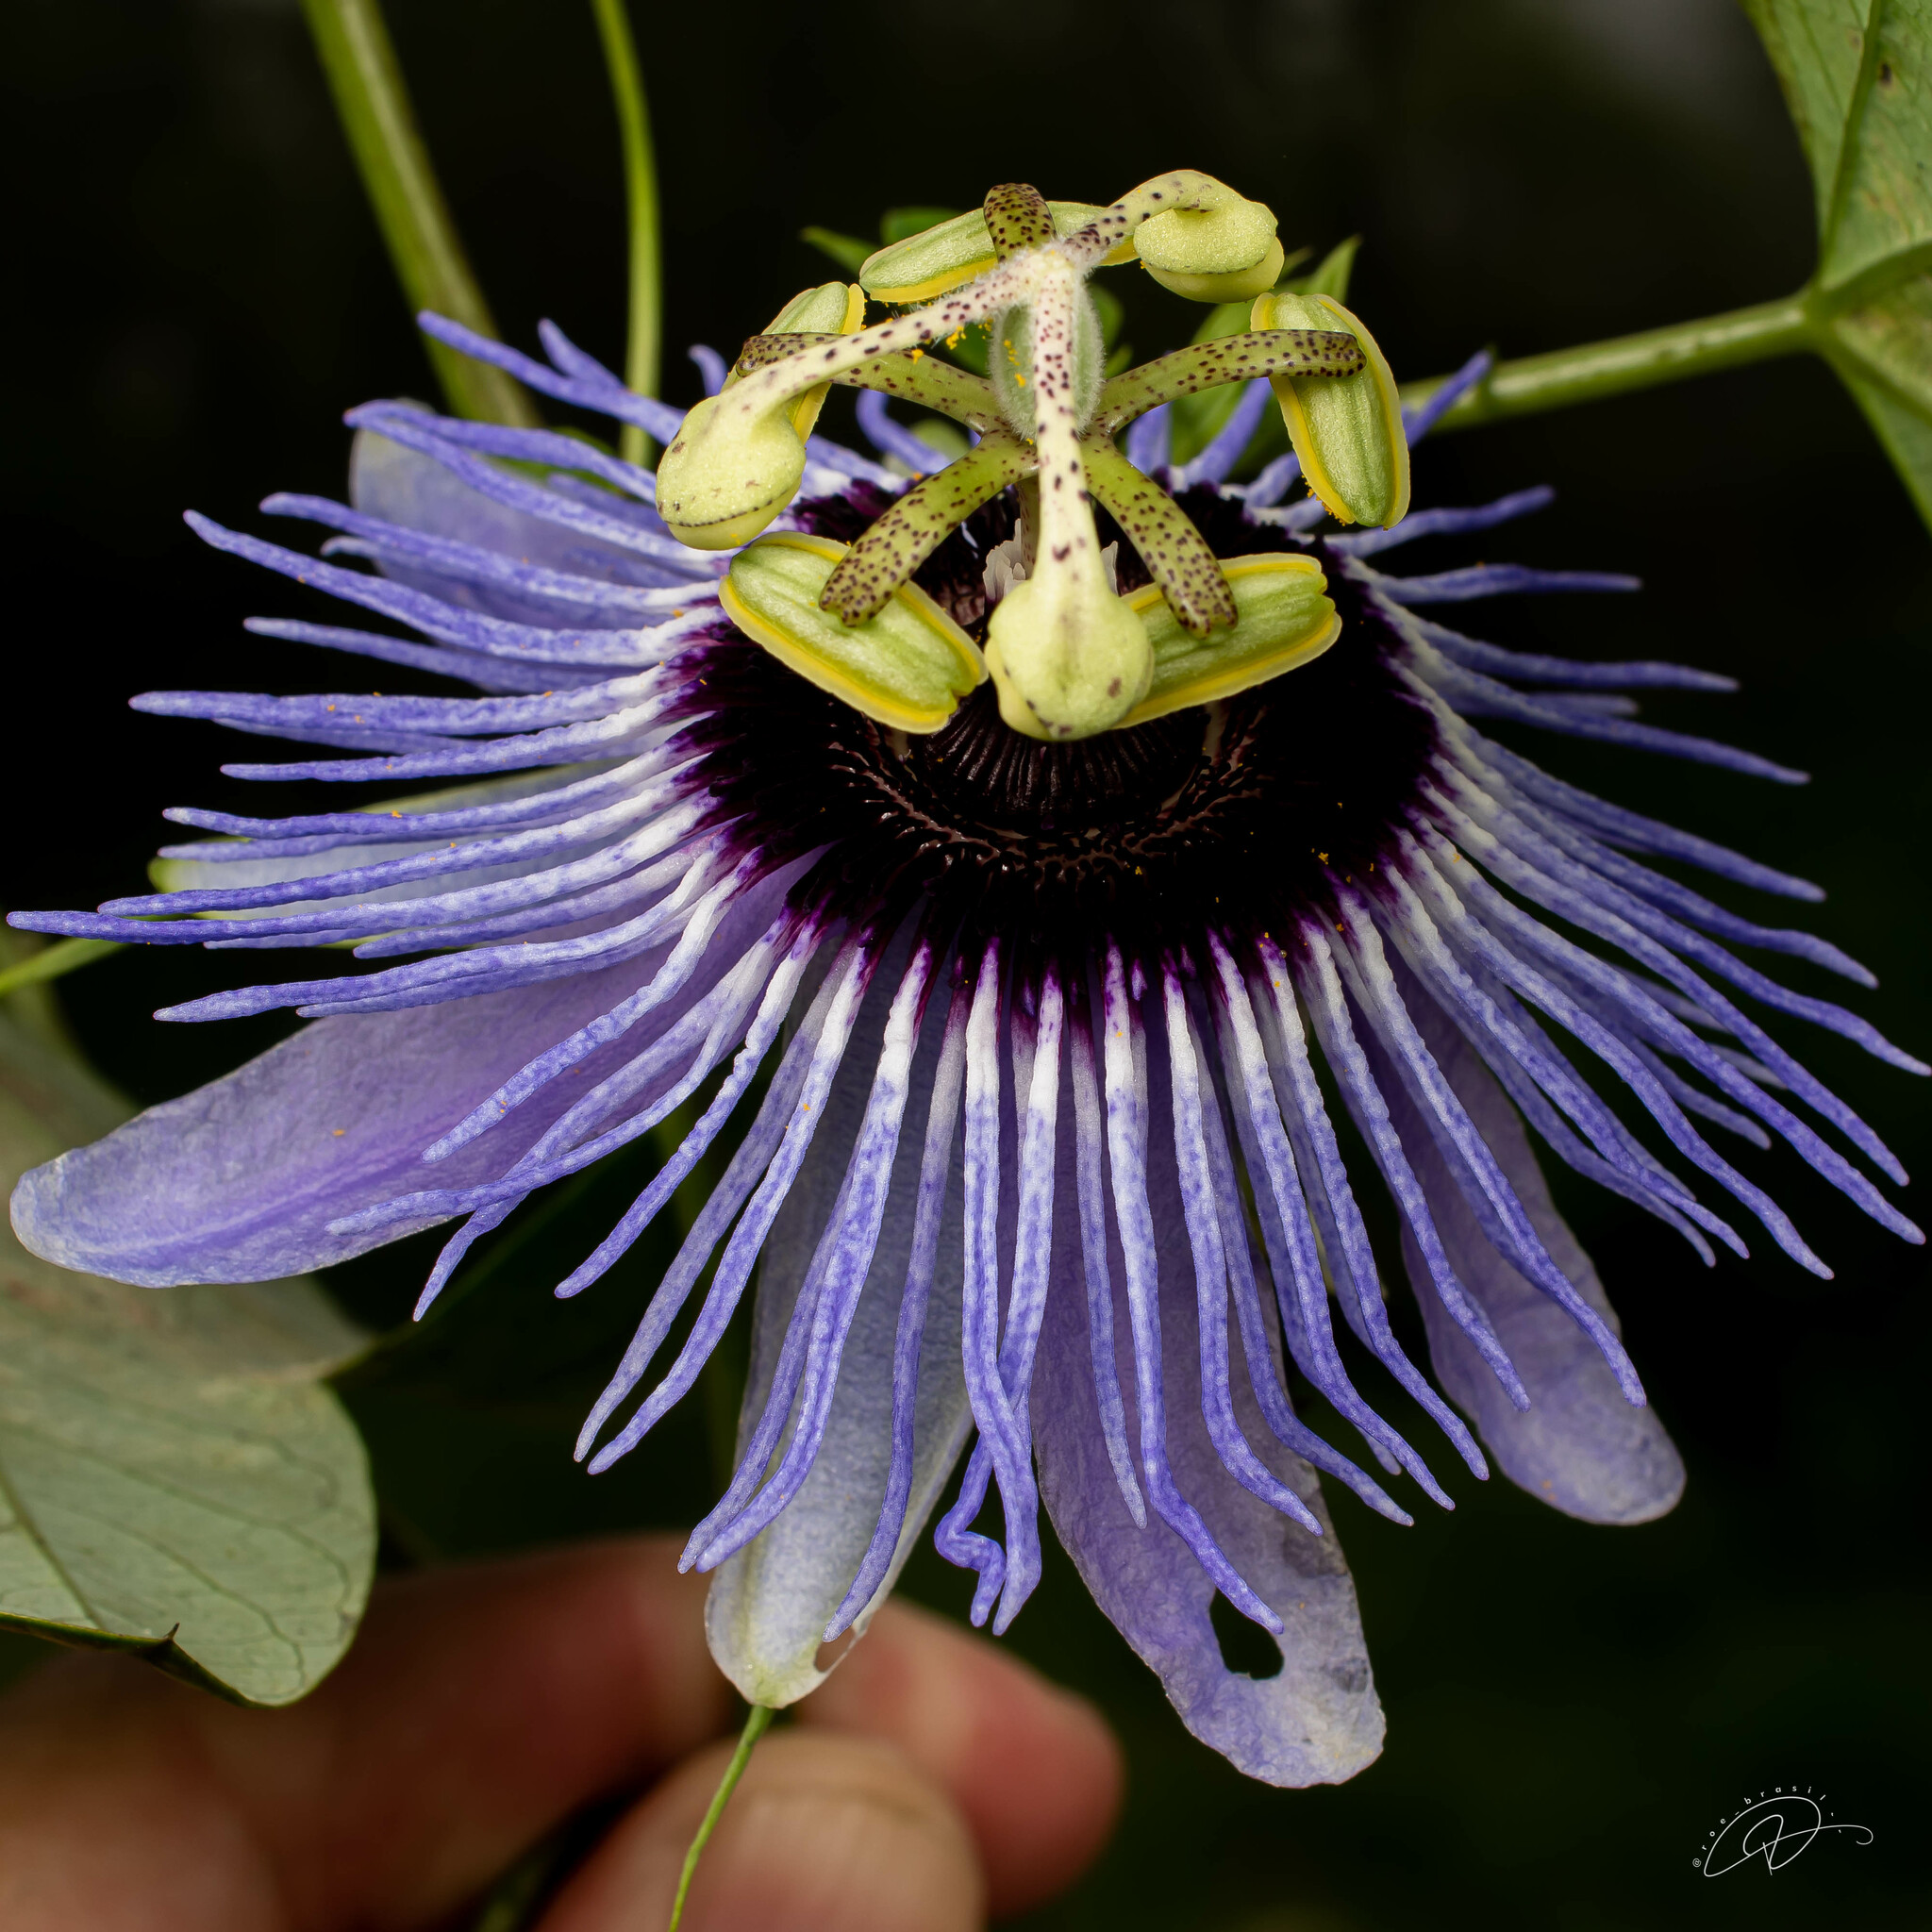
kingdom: Plantae
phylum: Tracheophyta
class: Magnoliopsida
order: Malpighiales
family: Passifloraceae
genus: Passiflora
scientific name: Passiflora amethystina
